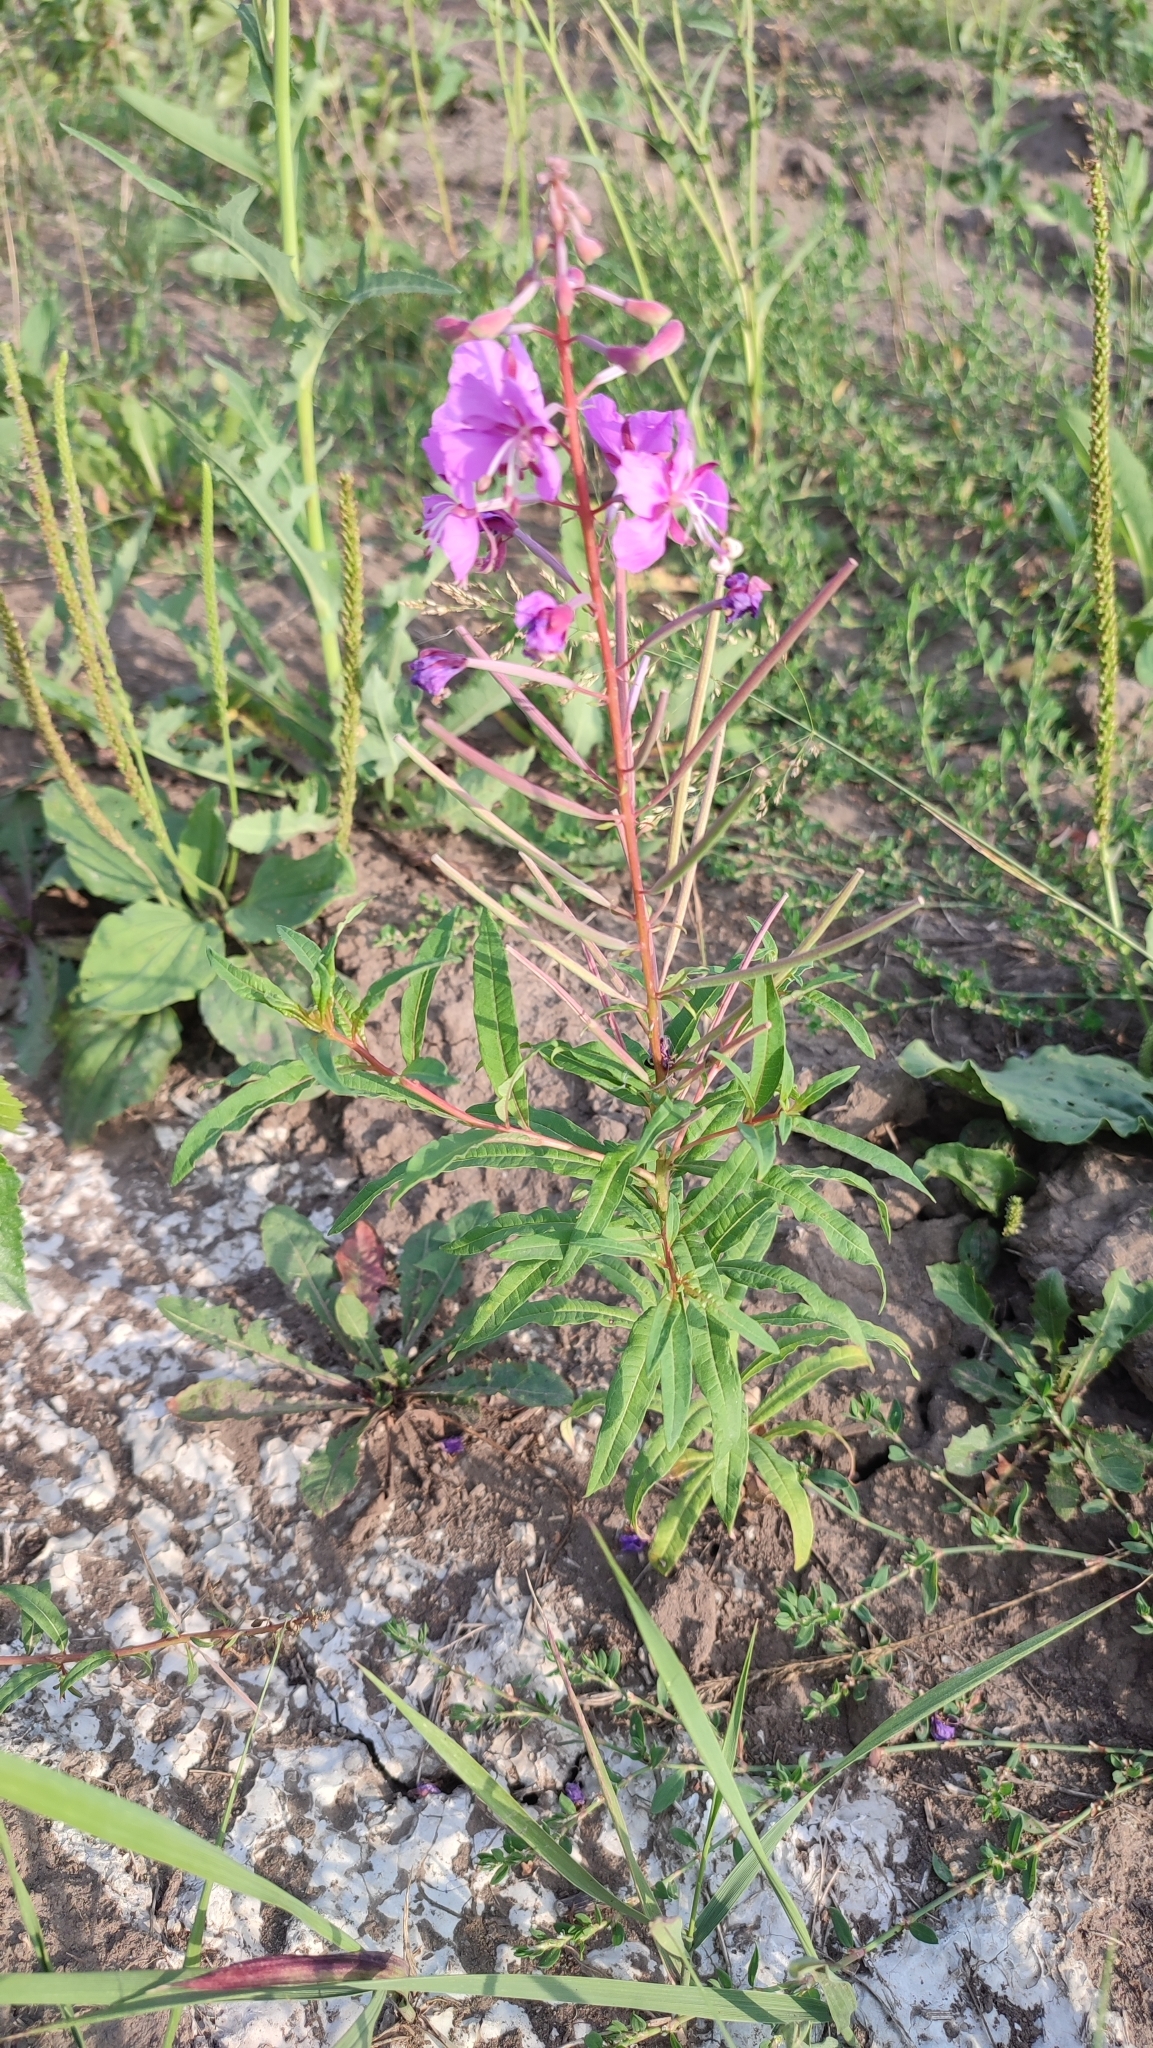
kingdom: Plantae
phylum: Tracheophyta
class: Magnoliopsida
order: Myrtales
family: Onagraceae
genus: Chamaenerion
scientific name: Chamaenerion angustifolium
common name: Fireweed
